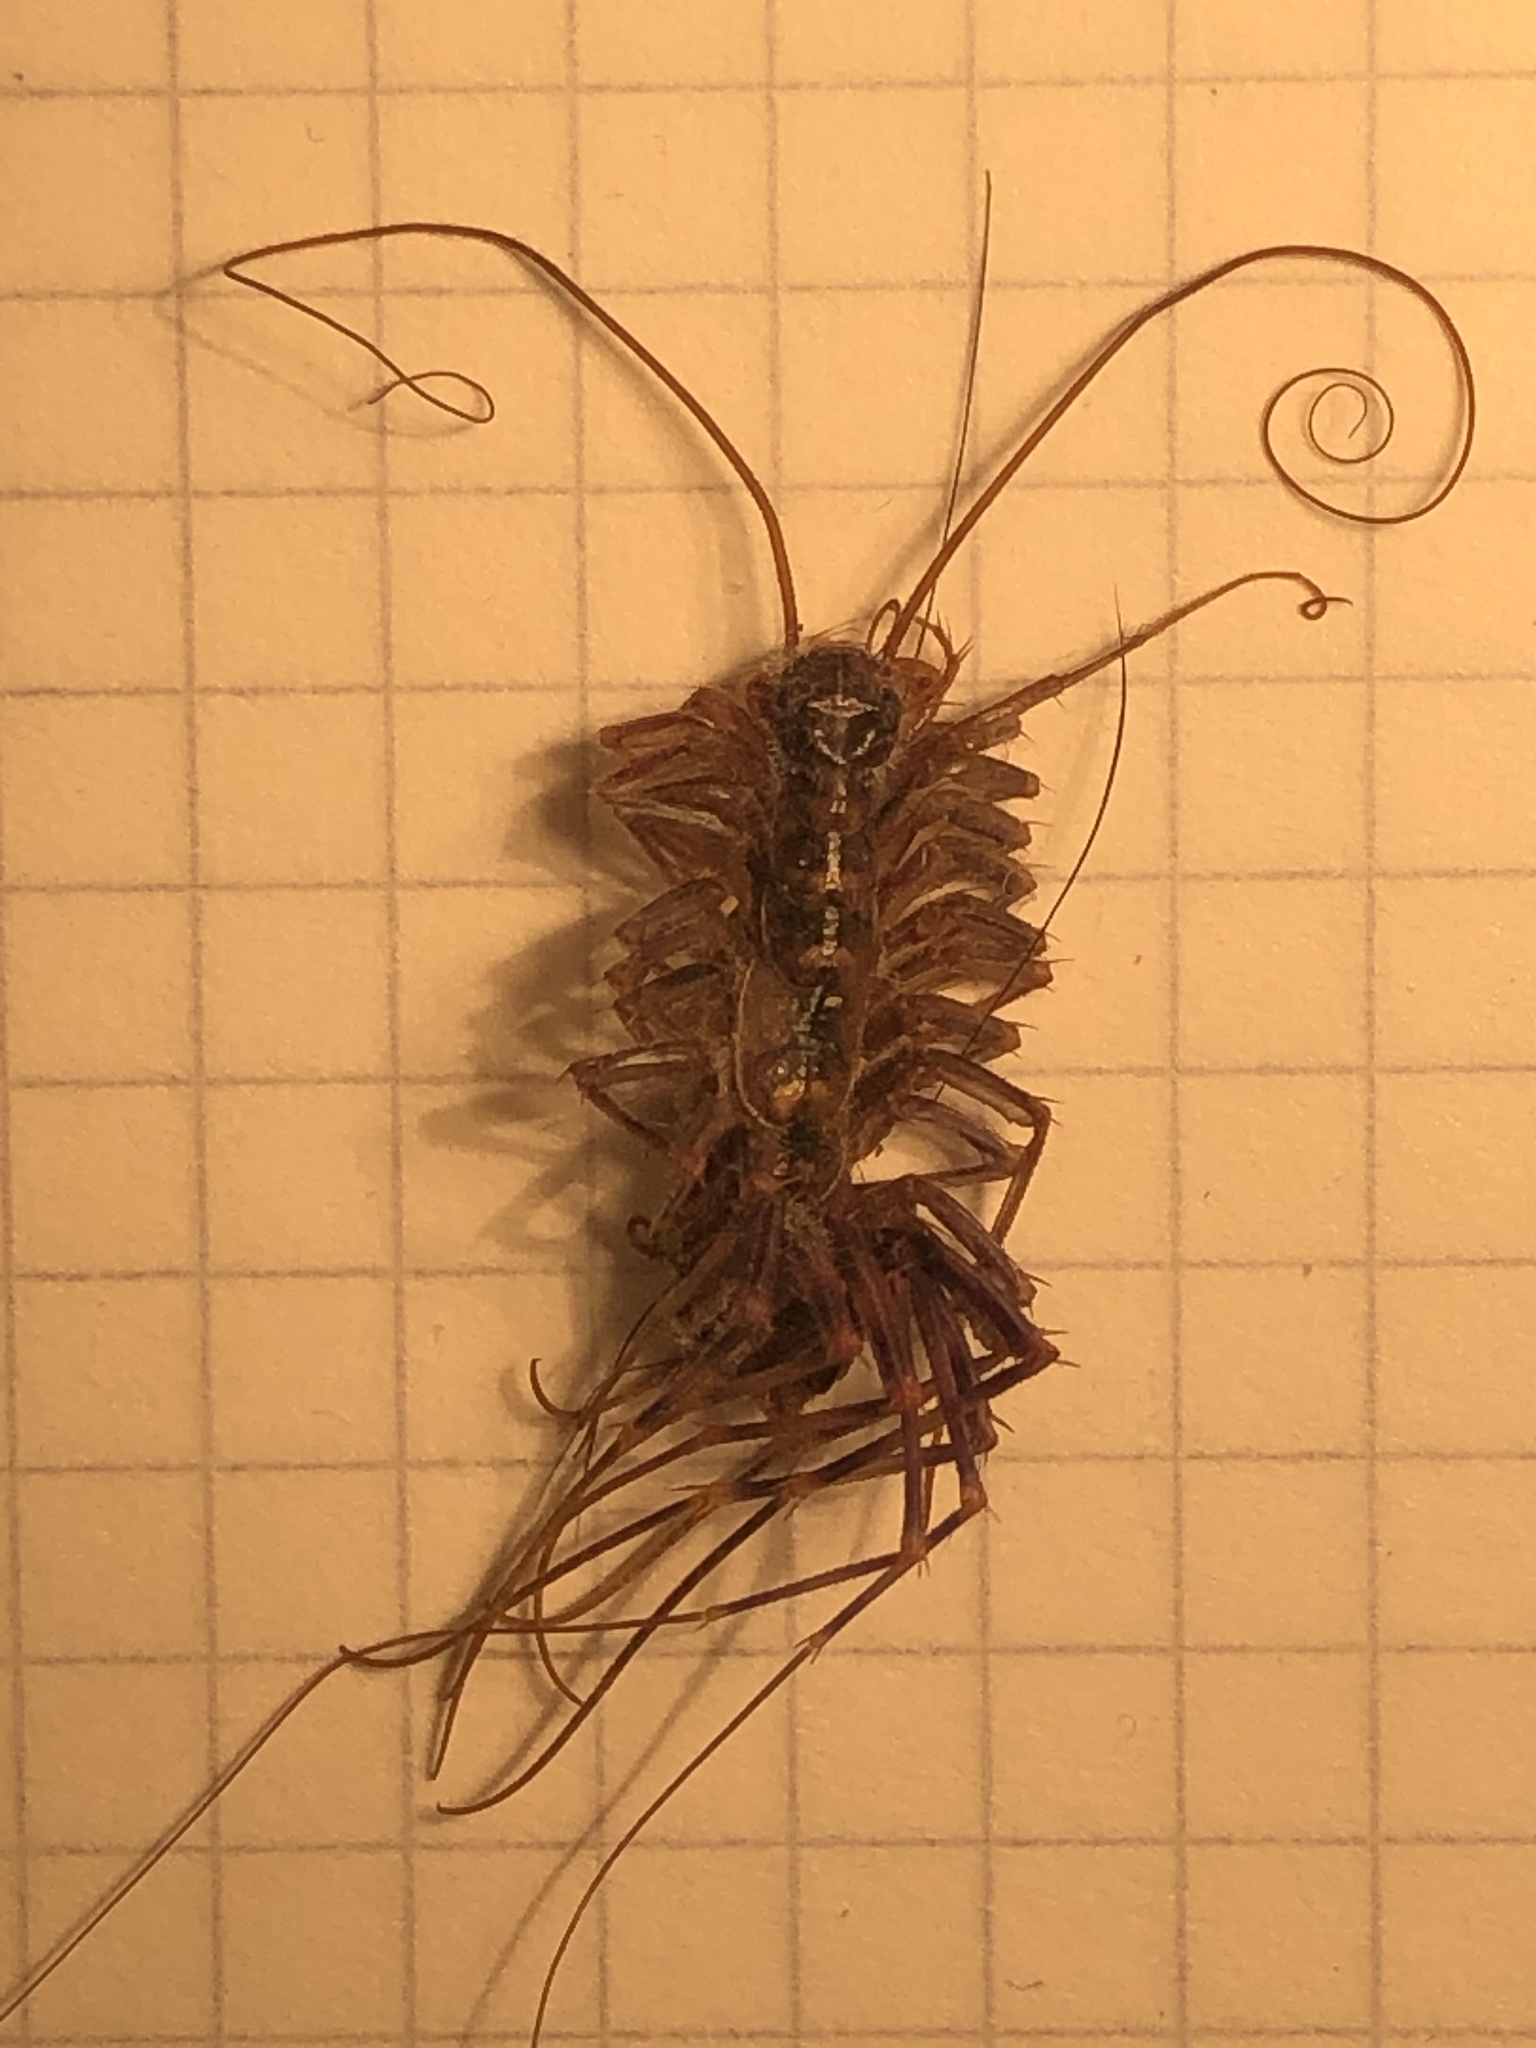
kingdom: Animalia
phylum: Arthropoda
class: Chilopoda
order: Scutigeromorpha
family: Scutigeridae
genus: Scutigera
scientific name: Scutigera coleoptrata
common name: House centipede
